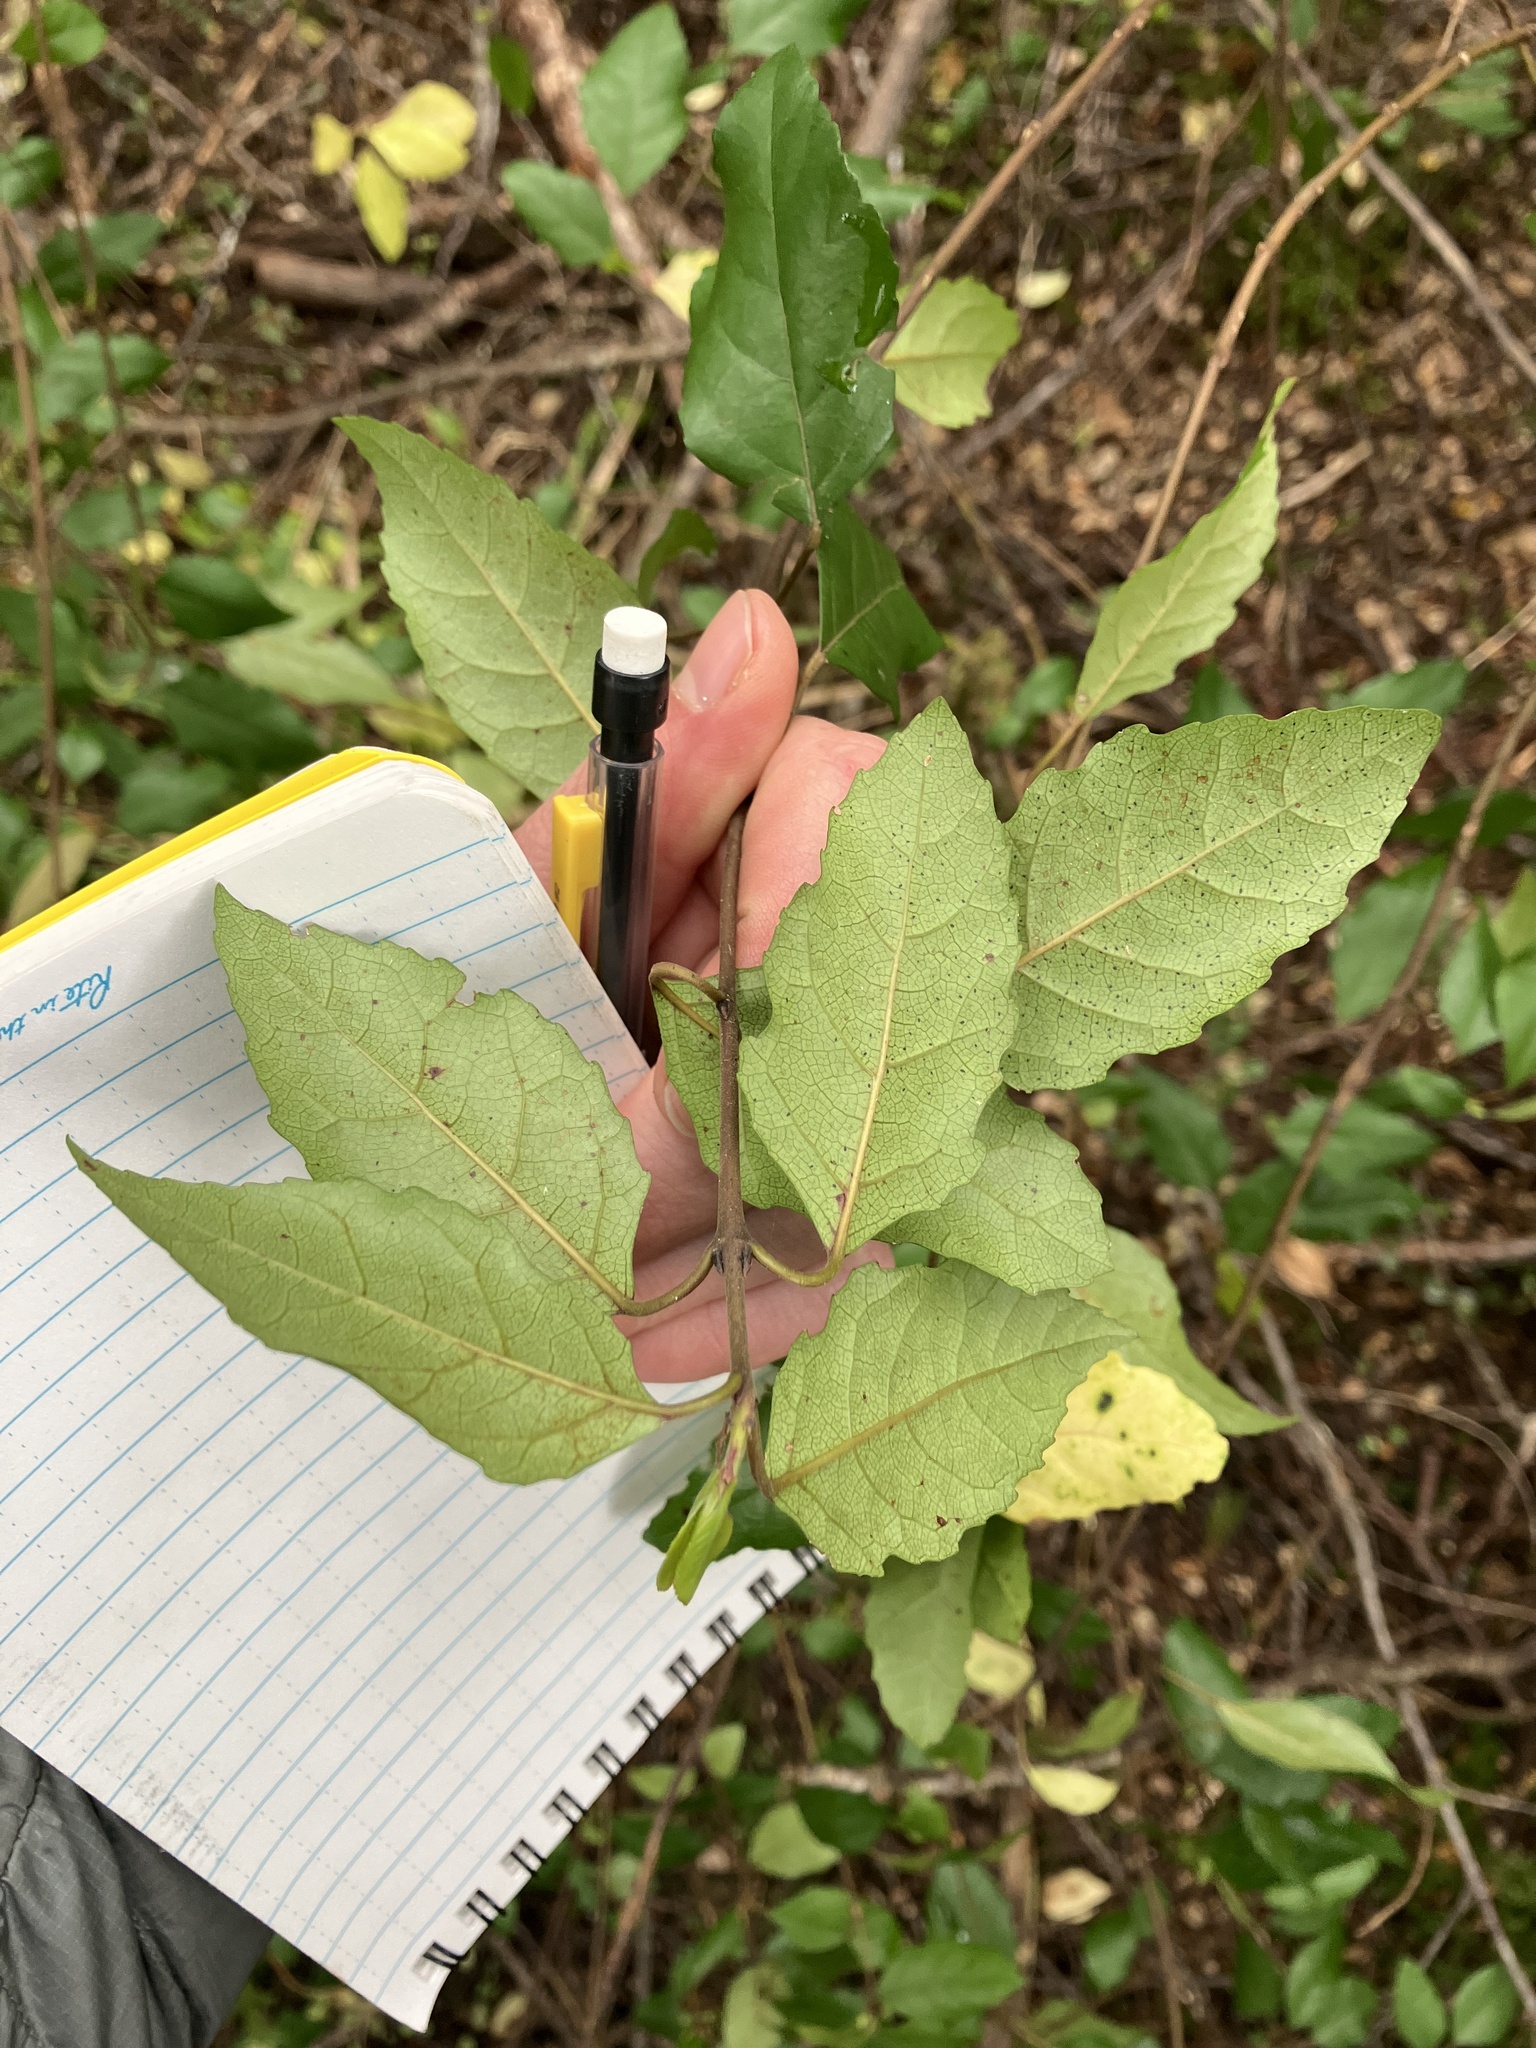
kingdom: Plantae
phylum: Tracheophyta
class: Magnoliopsida
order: Oxalidales
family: Elaeocarpaceae
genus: Aristotelia
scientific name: Aristotelia
